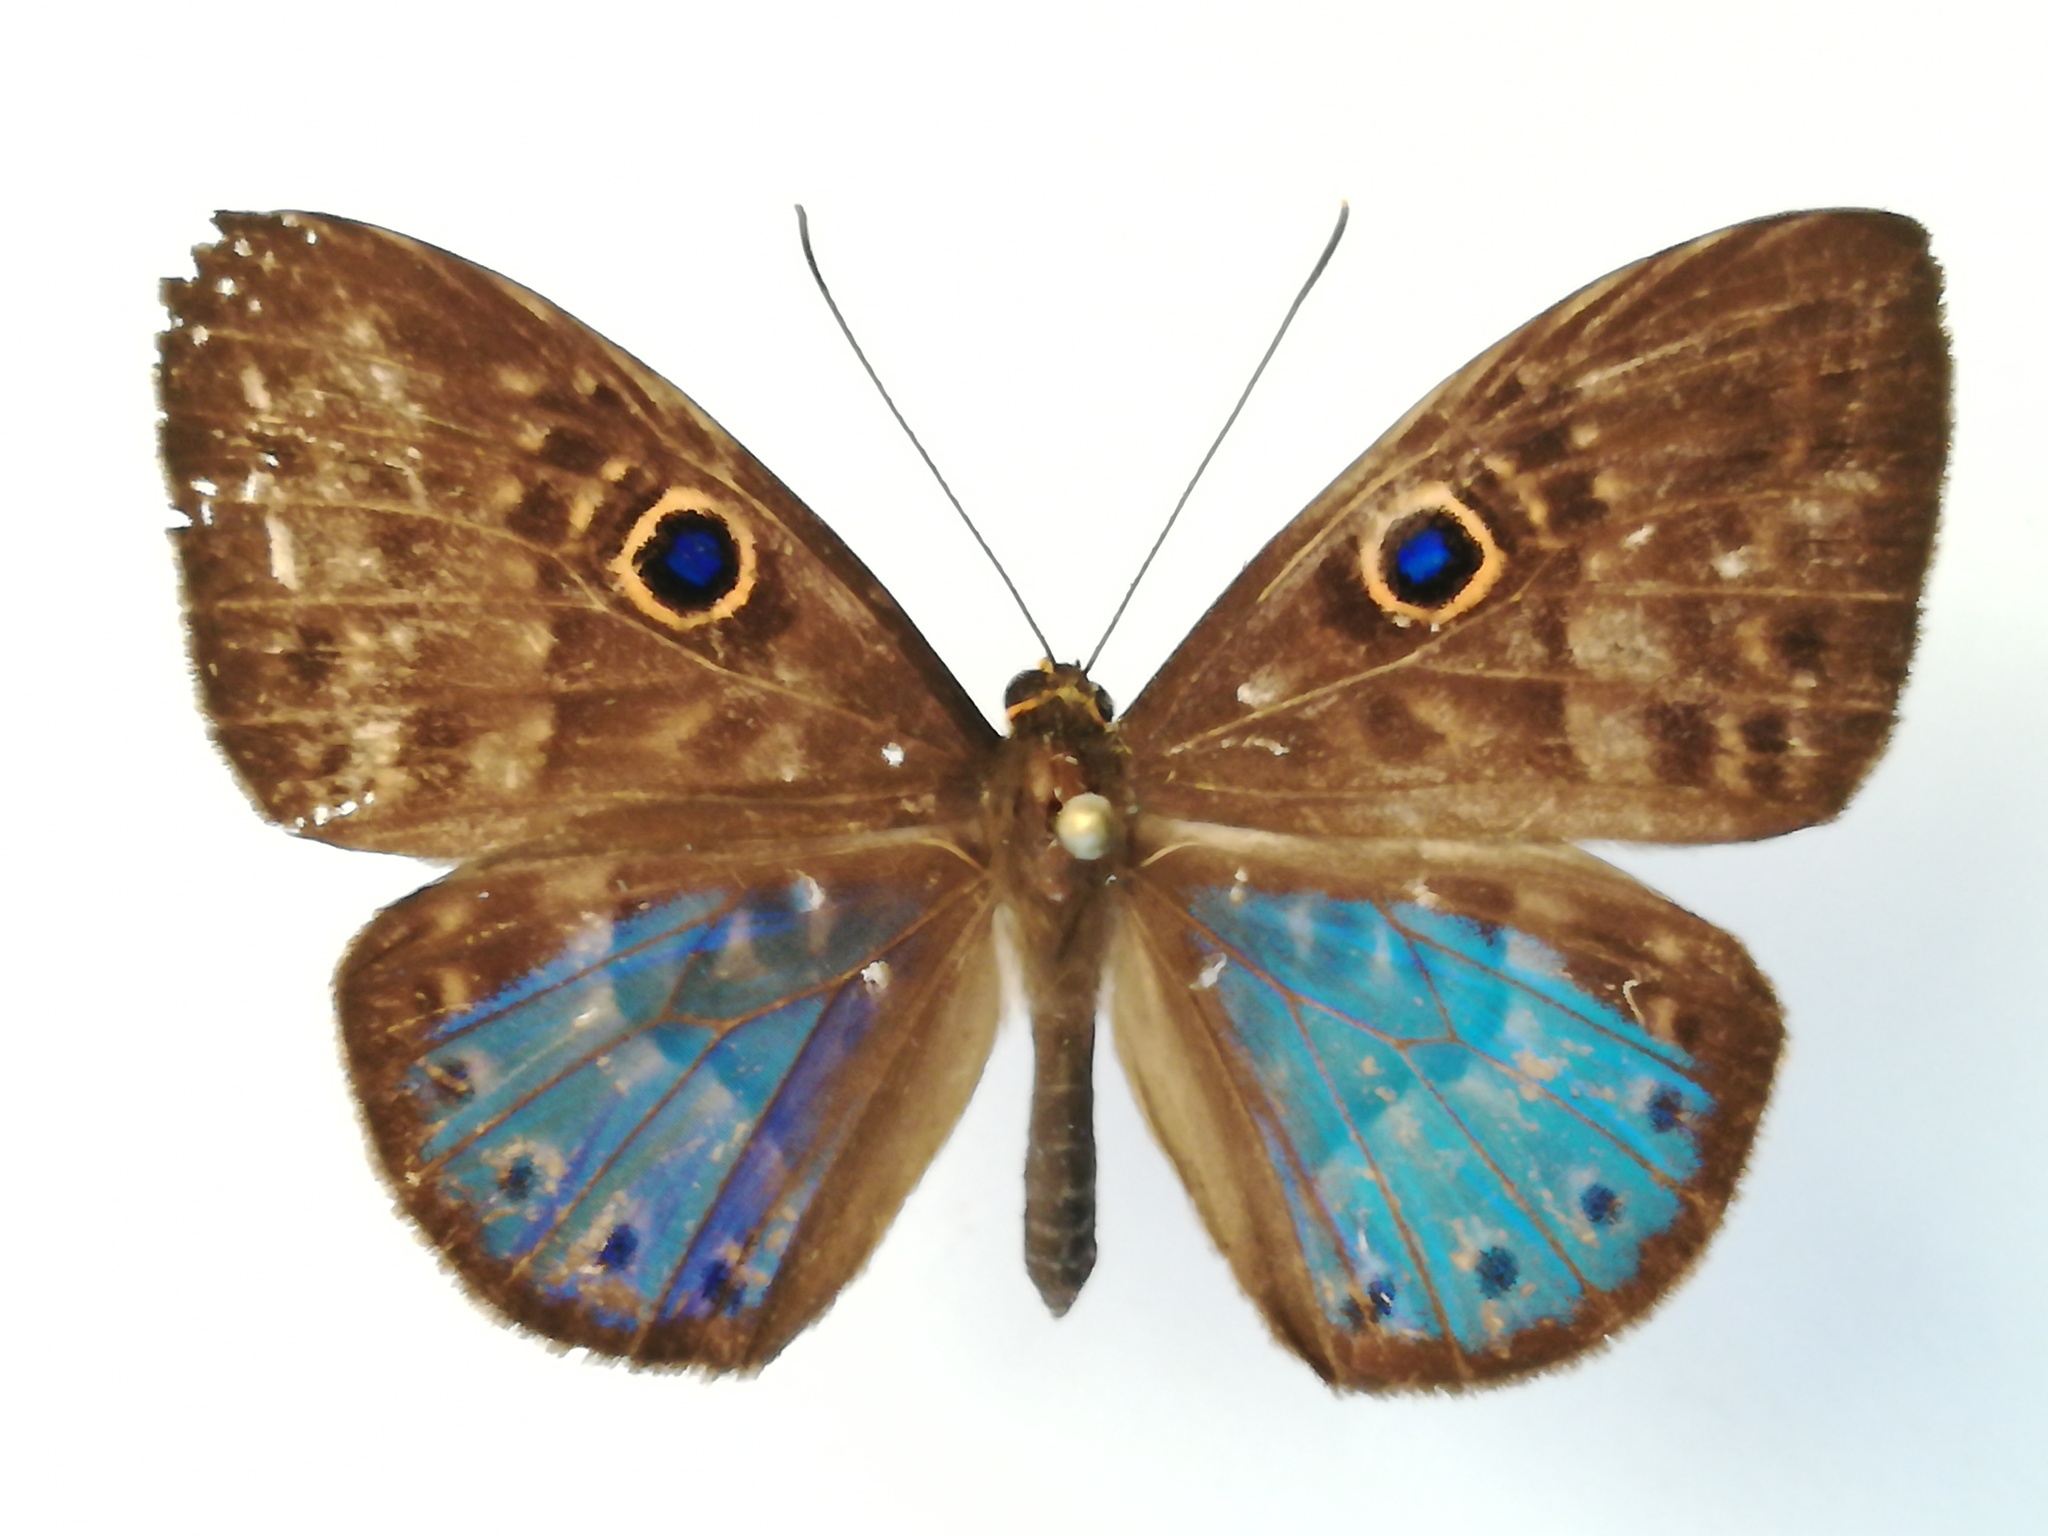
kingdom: Animalia
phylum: Cnidaria
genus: Eurybia
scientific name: Eurybia lycisca
